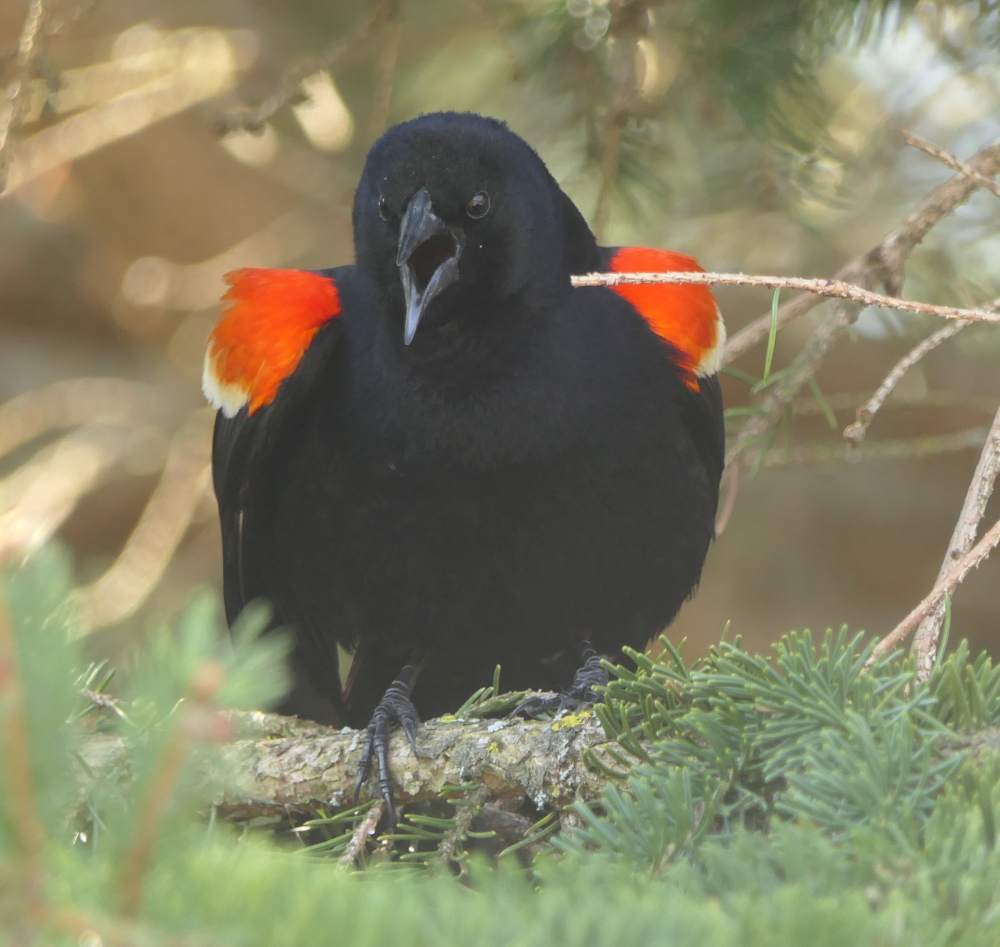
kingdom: Animalia
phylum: Chordata
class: Aves
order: Passeriformes
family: Icteridae
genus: Agelaius
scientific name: Agelaius phoeniceus
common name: Red-winged blackbird
